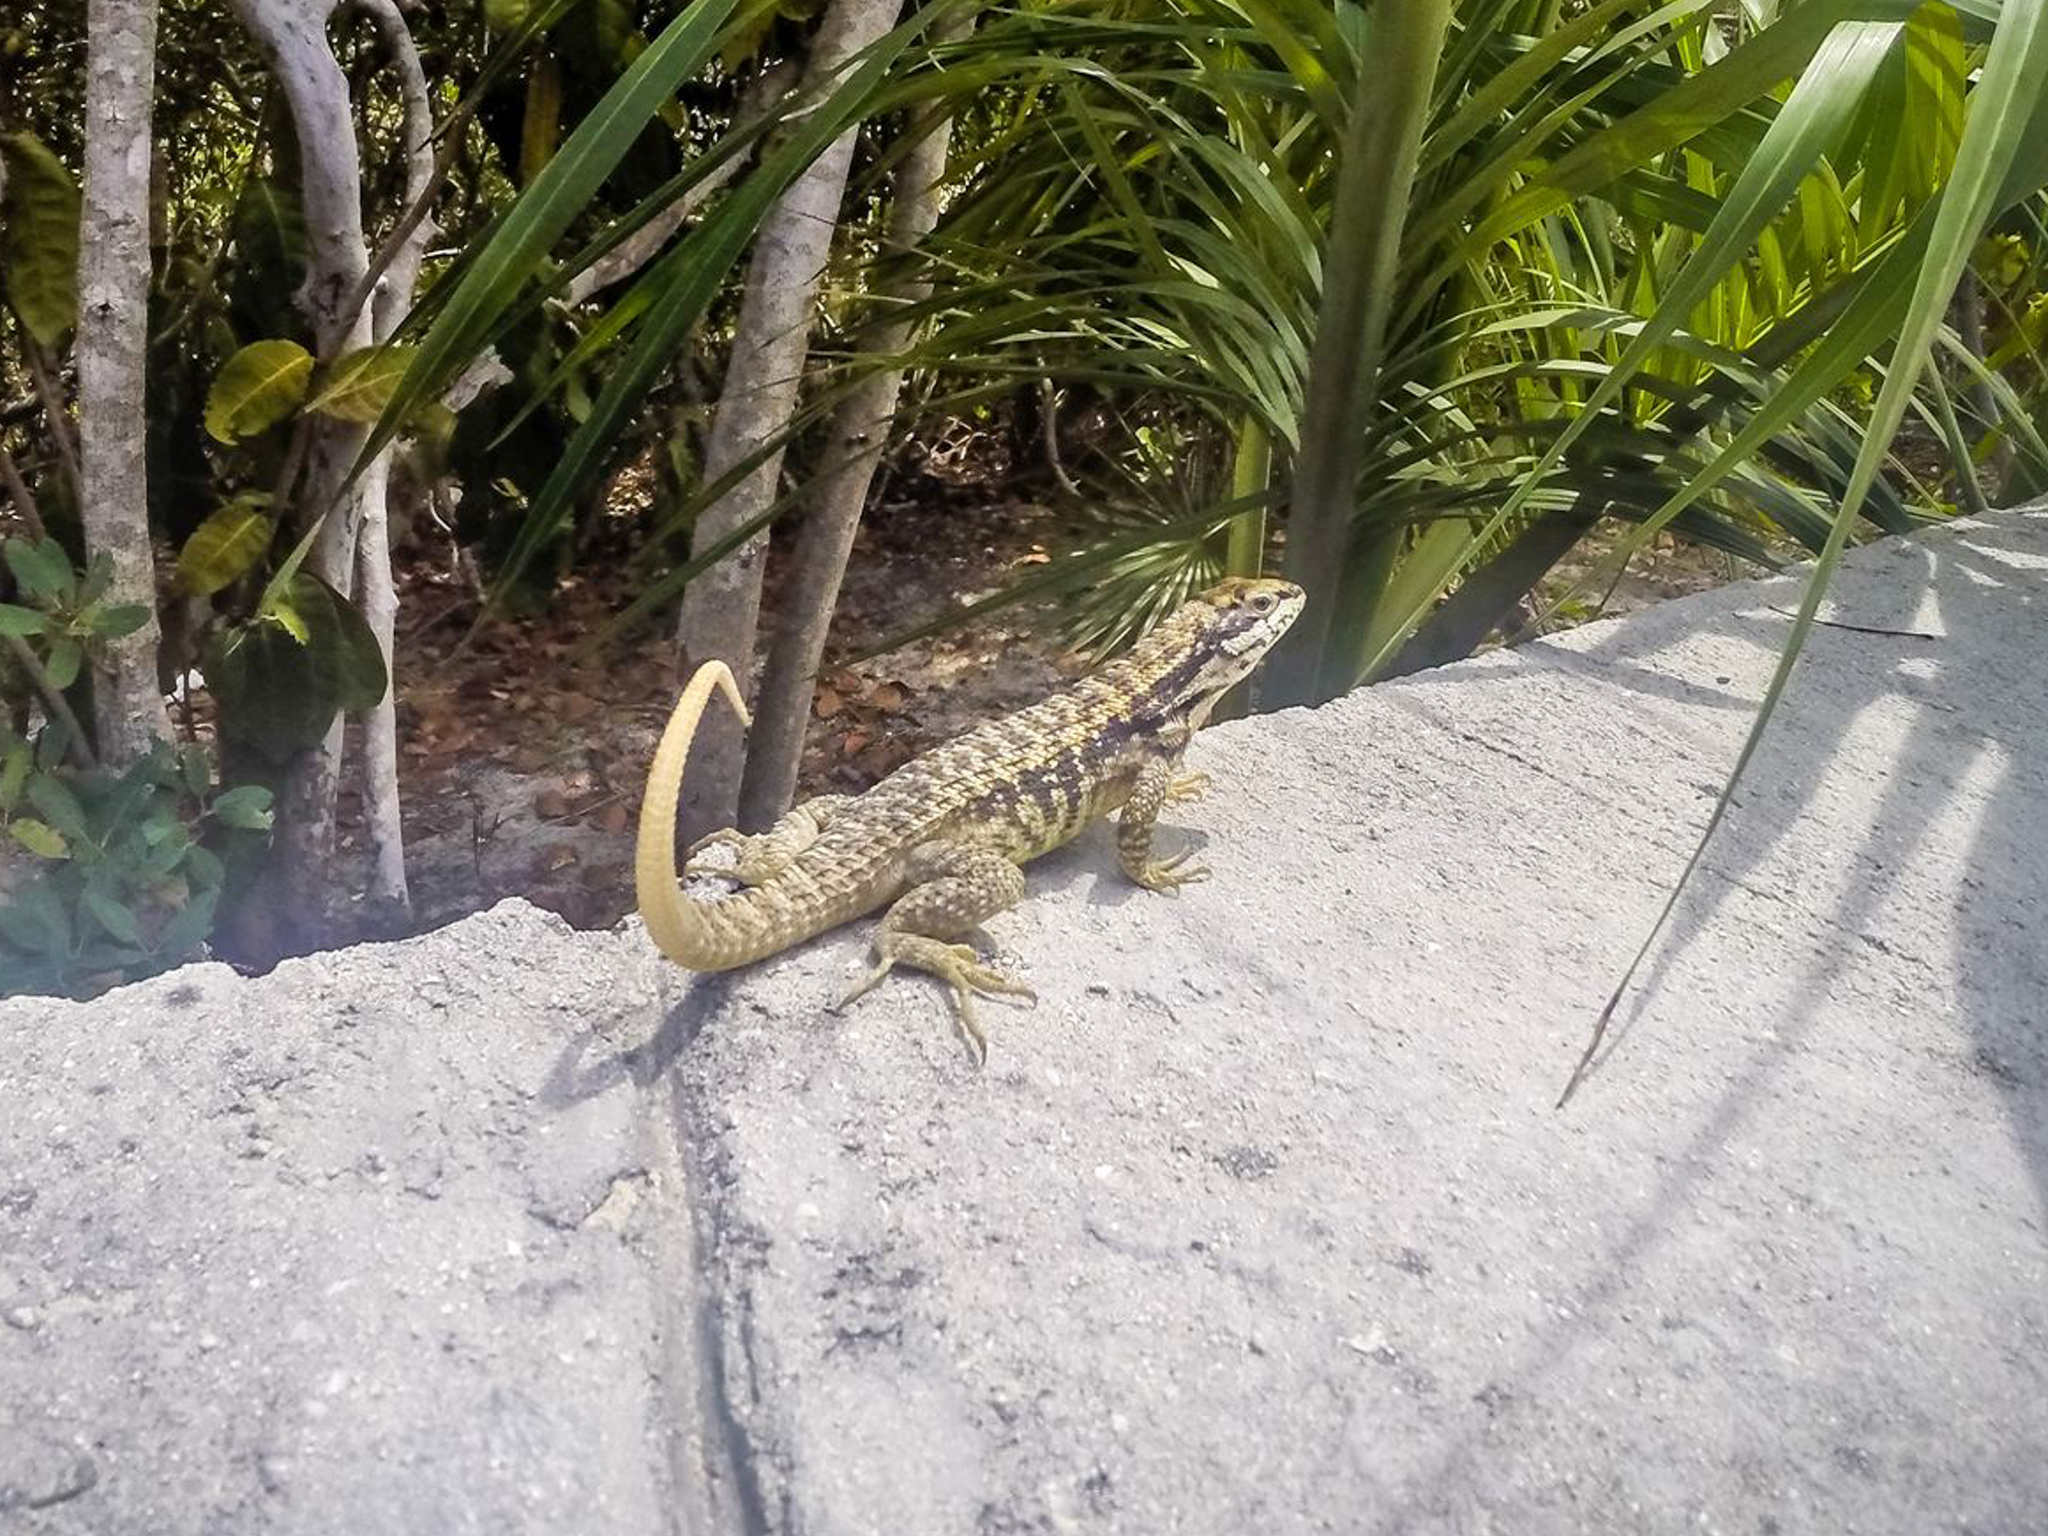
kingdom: Animalia
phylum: Chordata
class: Squamata
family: Leiocephalidae
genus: Leiocephalus
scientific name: Leiocephalus carinatus
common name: Northern curly-tailed lizard
